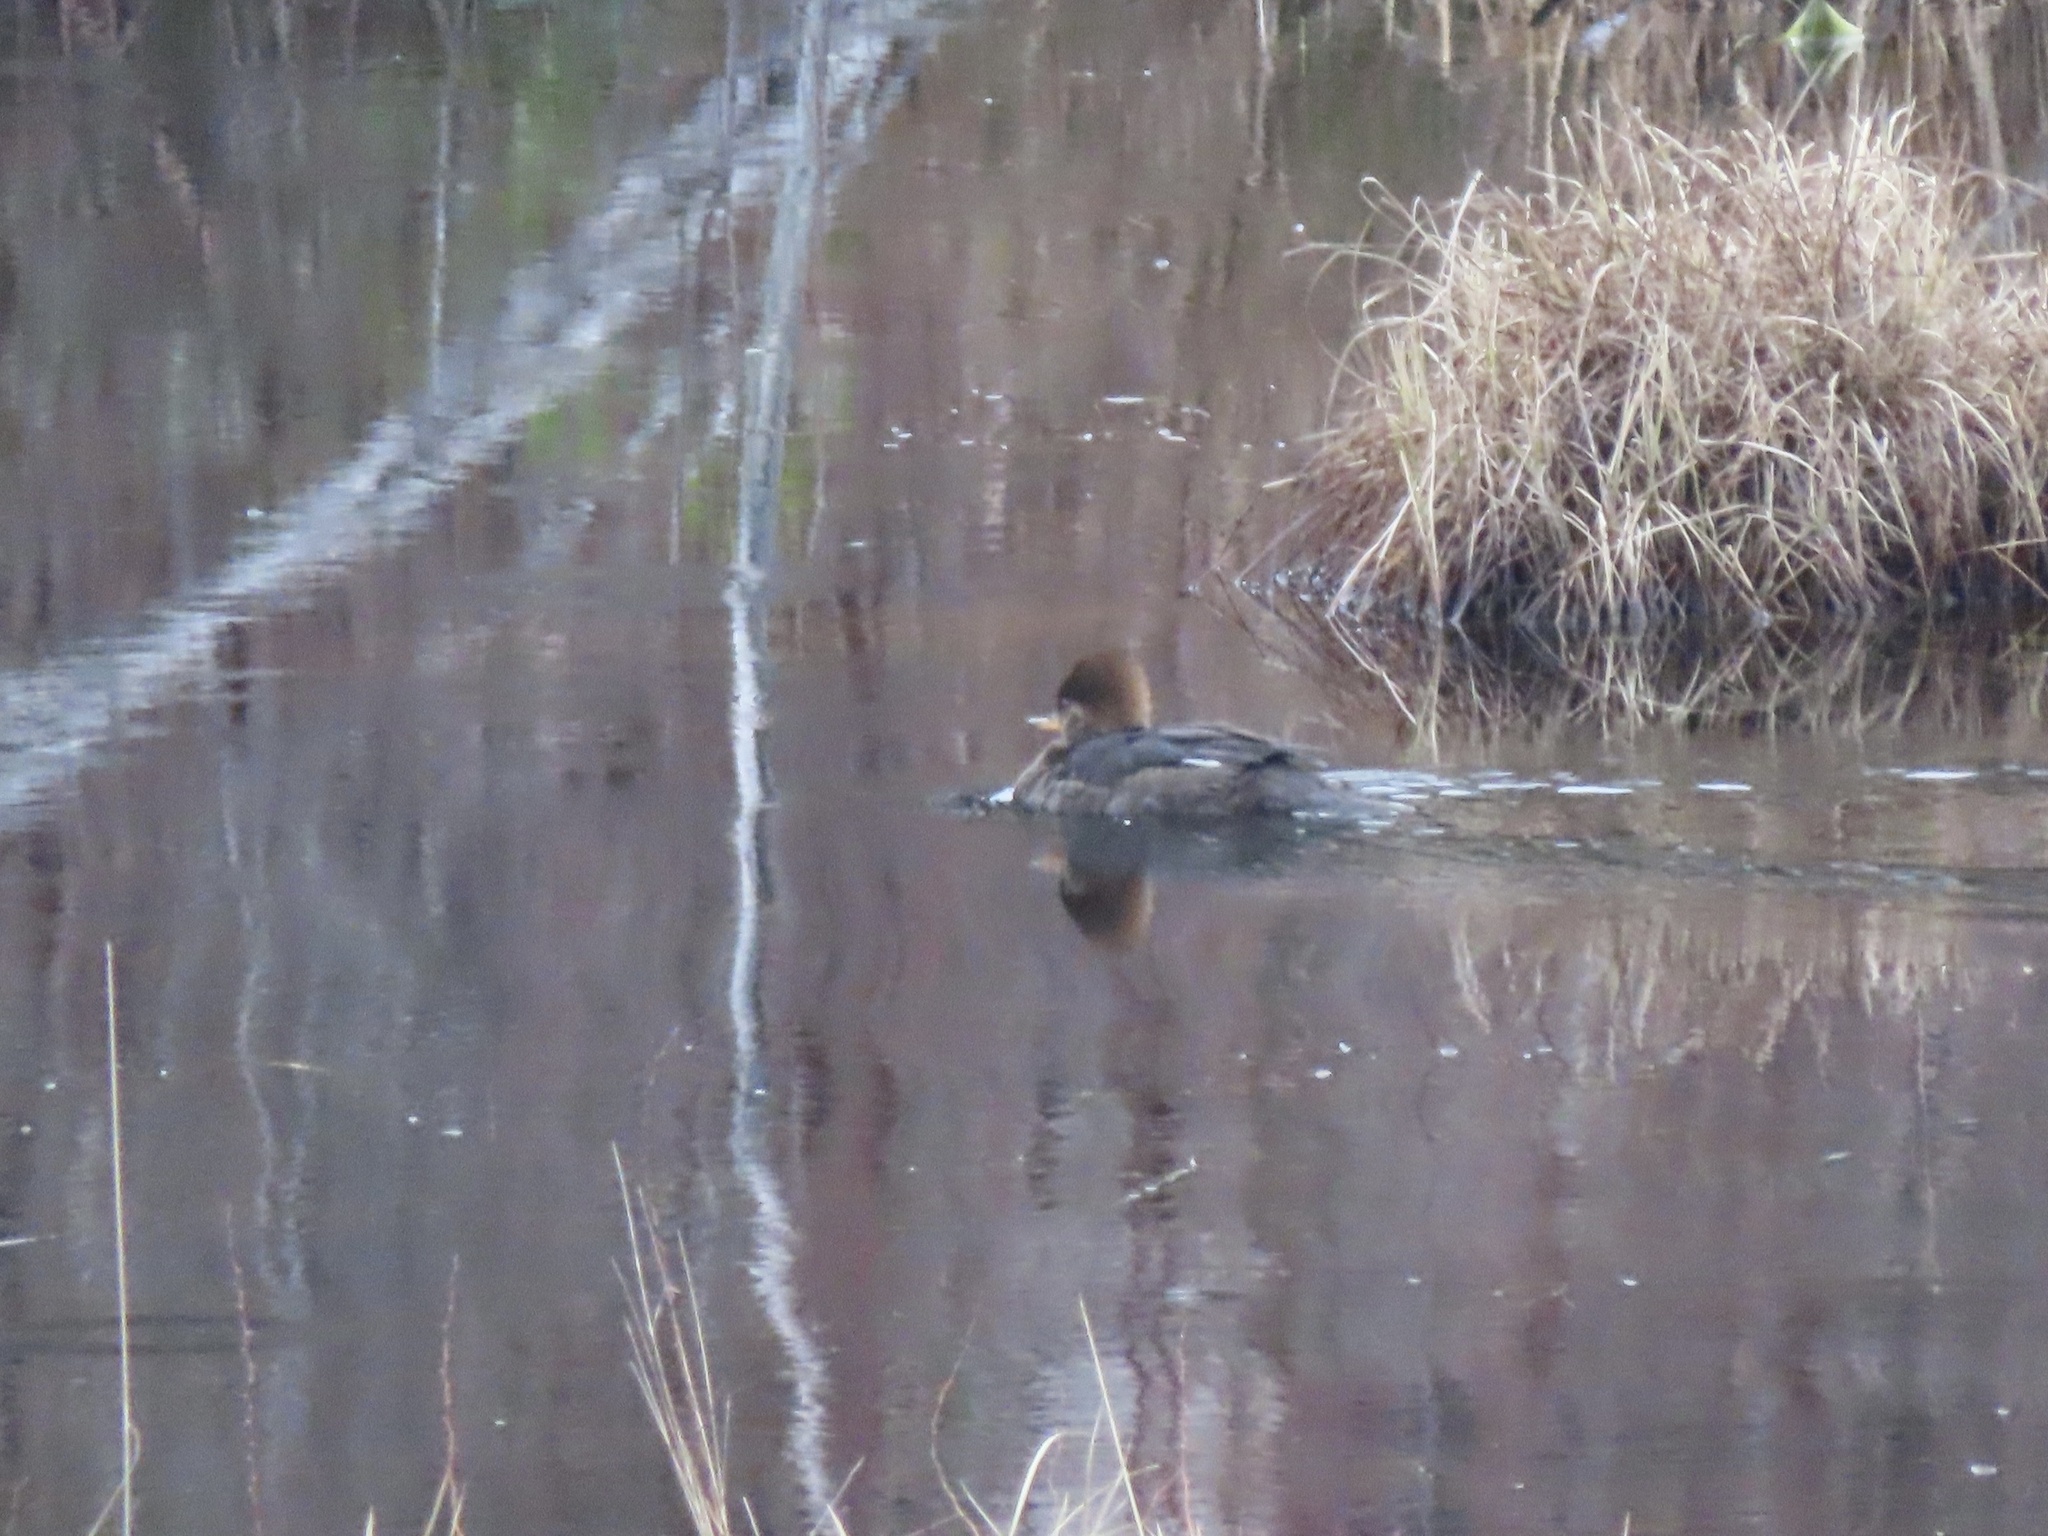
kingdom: Animalia
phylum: Chordata
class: Aves
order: Anseriformes
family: Anatidae
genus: Lophodytes
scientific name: Lophodytes cucullatus
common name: Hooded merganser
